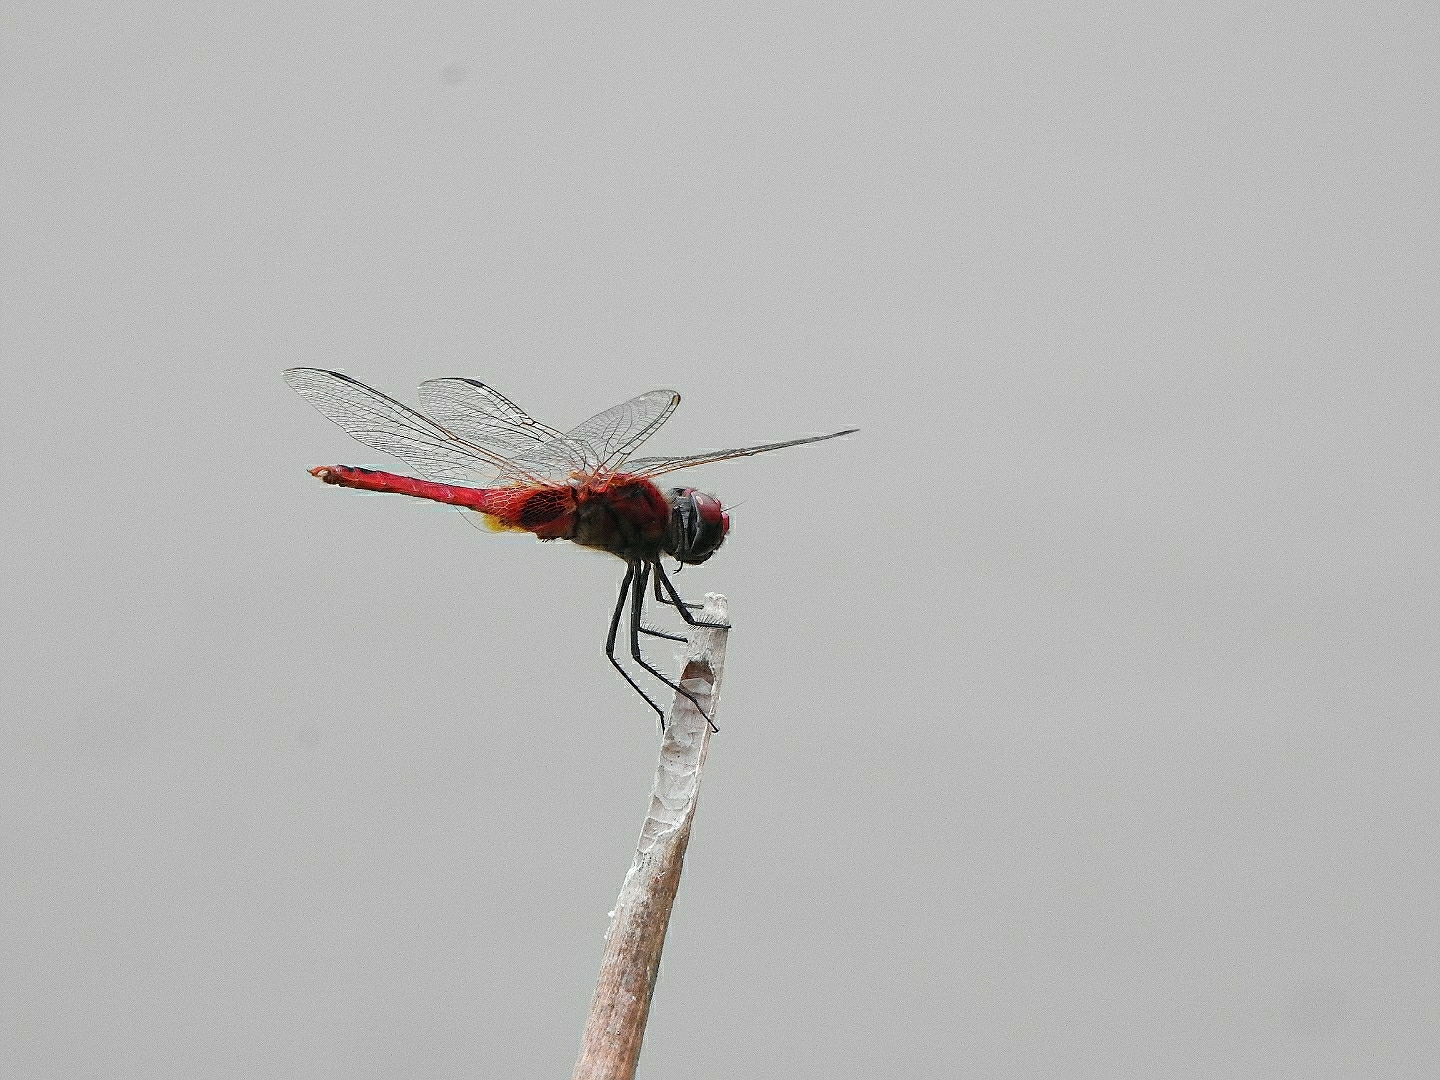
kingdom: Animalia
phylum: Arthropoda
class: Insecta
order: Odonata
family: Libellulidae
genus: Urothemis
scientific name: Urothemis signata
